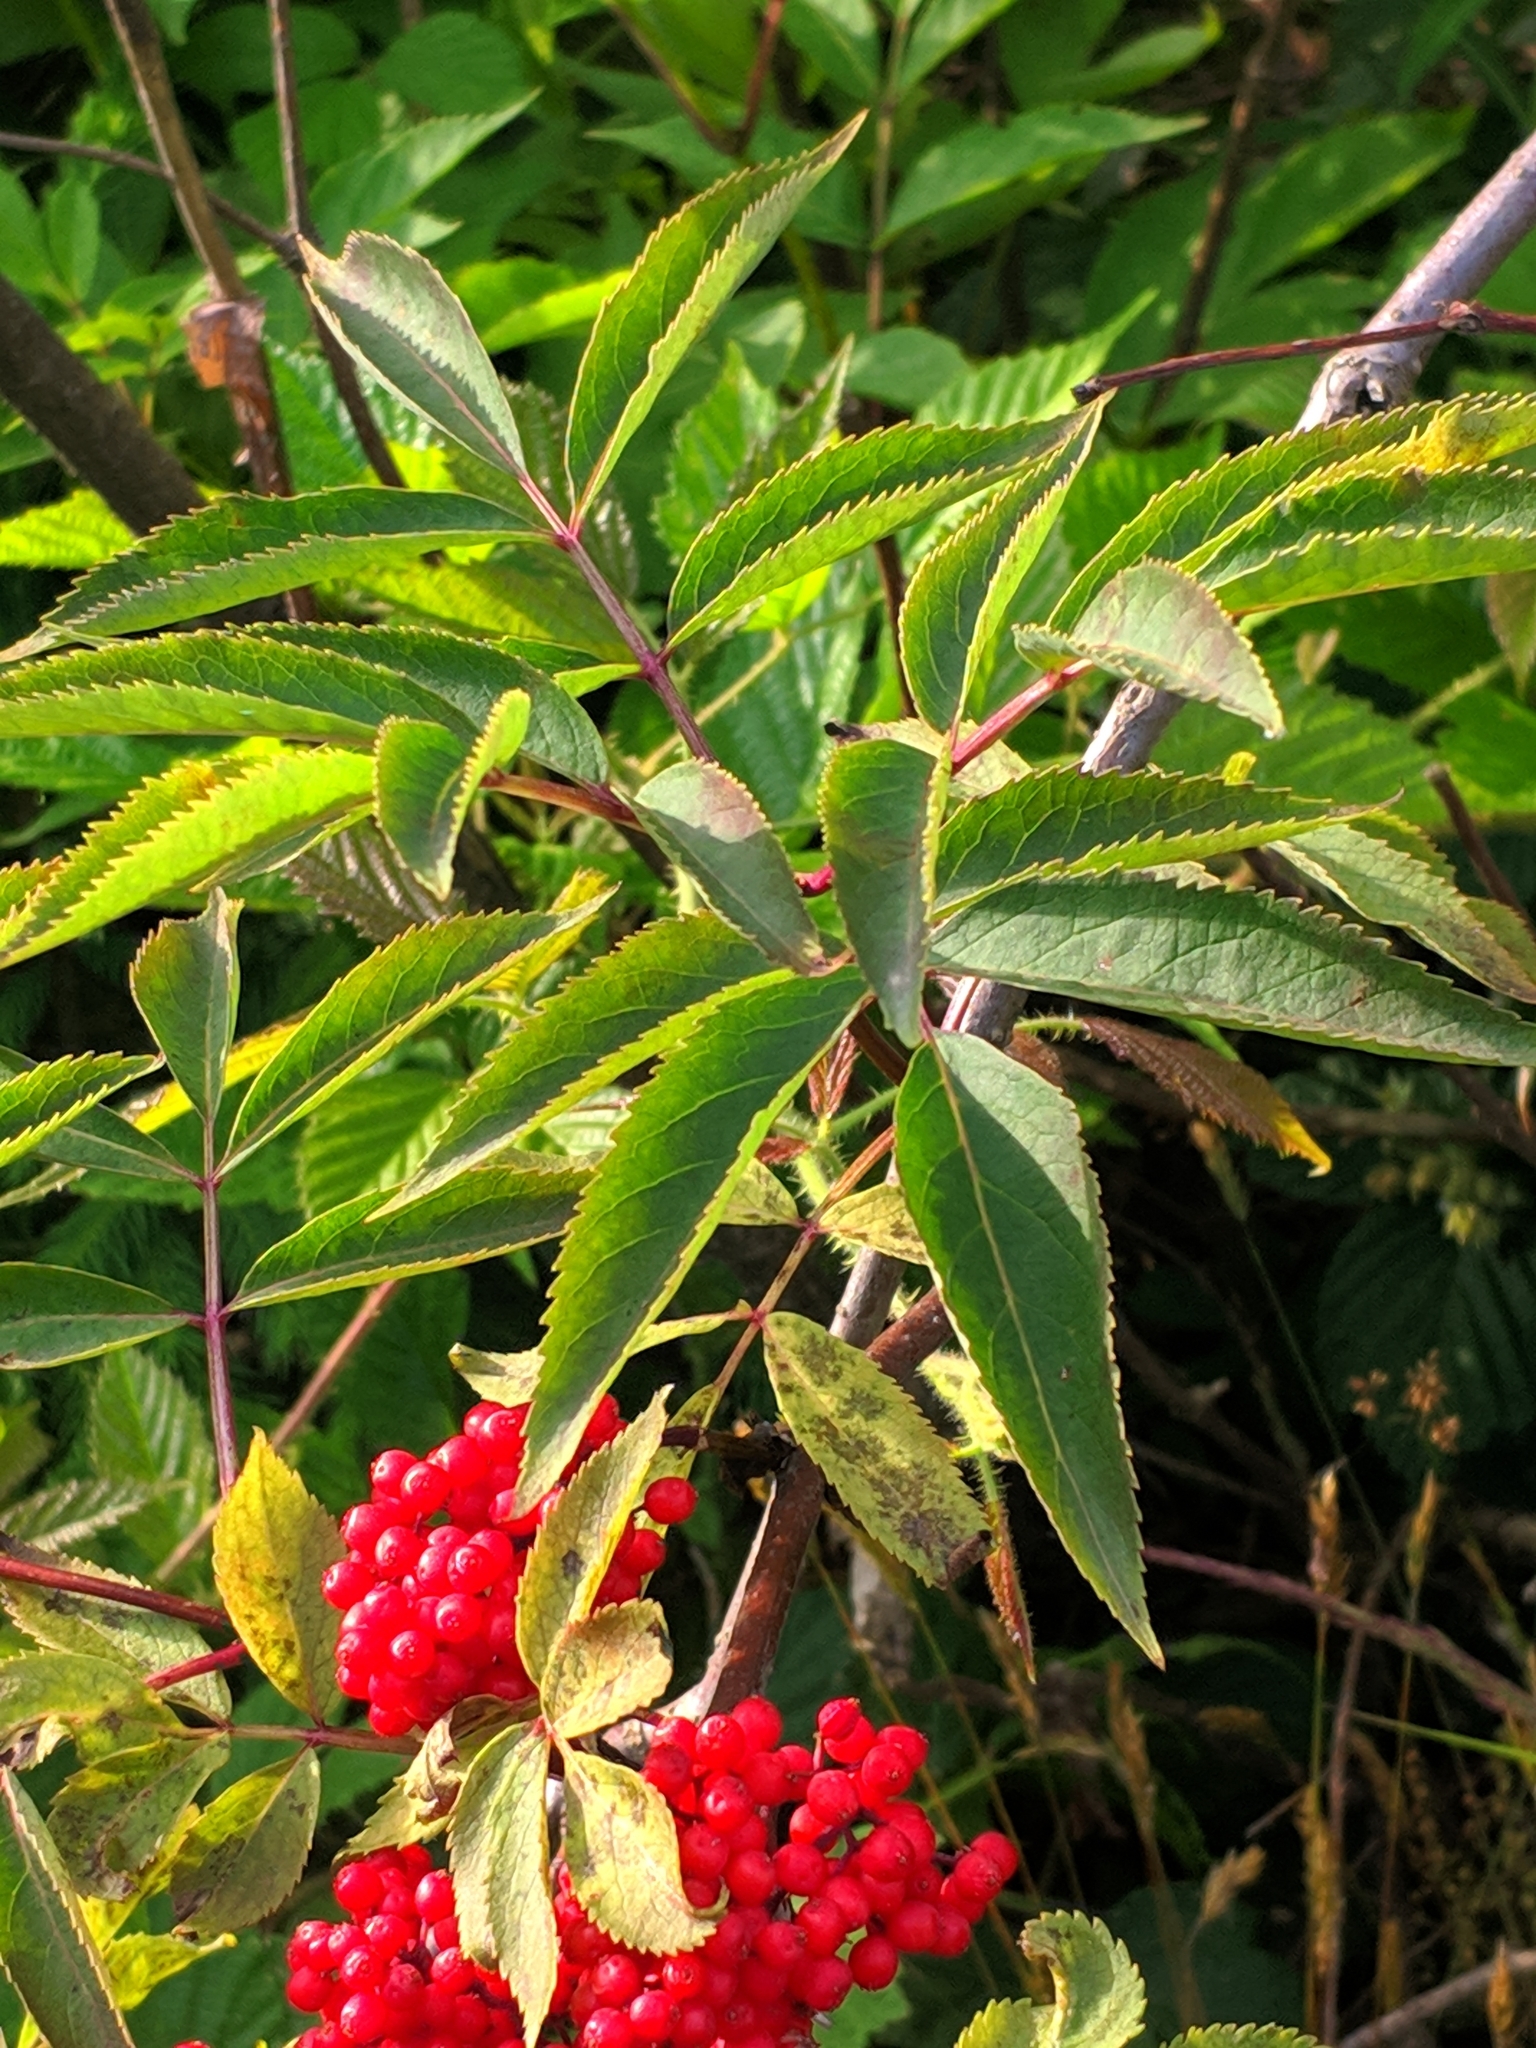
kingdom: Plantae
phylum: Tracheophyta
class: Magnoliopsida
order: Dipsacales
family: Viburnaceae
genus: Sambucus
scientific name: Sambucus racemosa
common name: Red-berried elder
